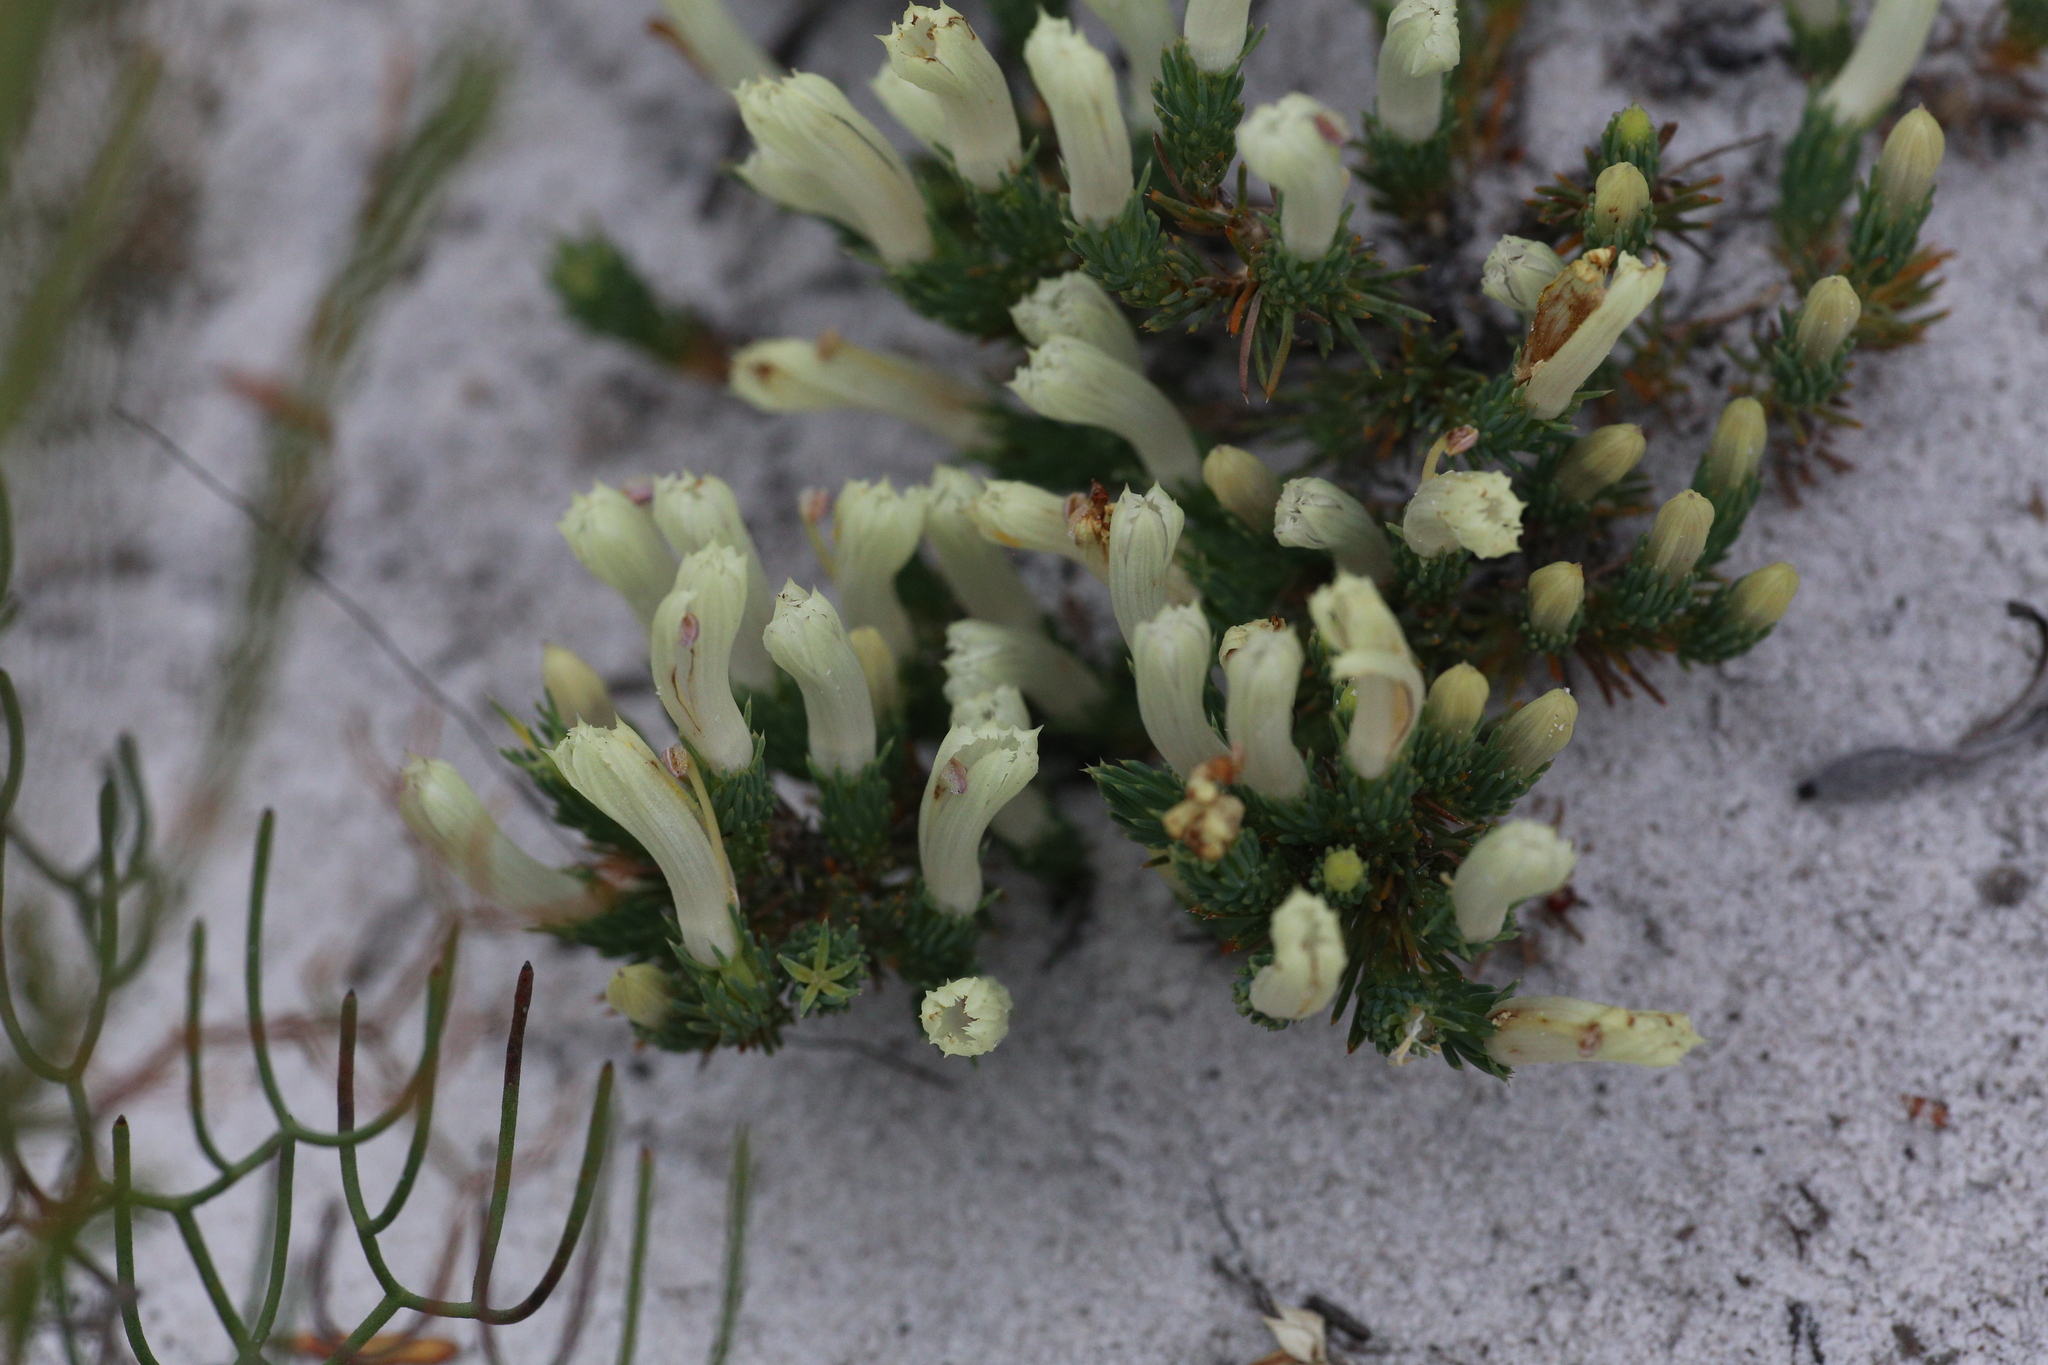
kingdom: Plantae
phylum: Tracheophyta
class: Magnoliopsida
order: Asterales
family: Goodeniaceae
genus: Lechenaultia
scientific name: Lechenaultia tubiflora
